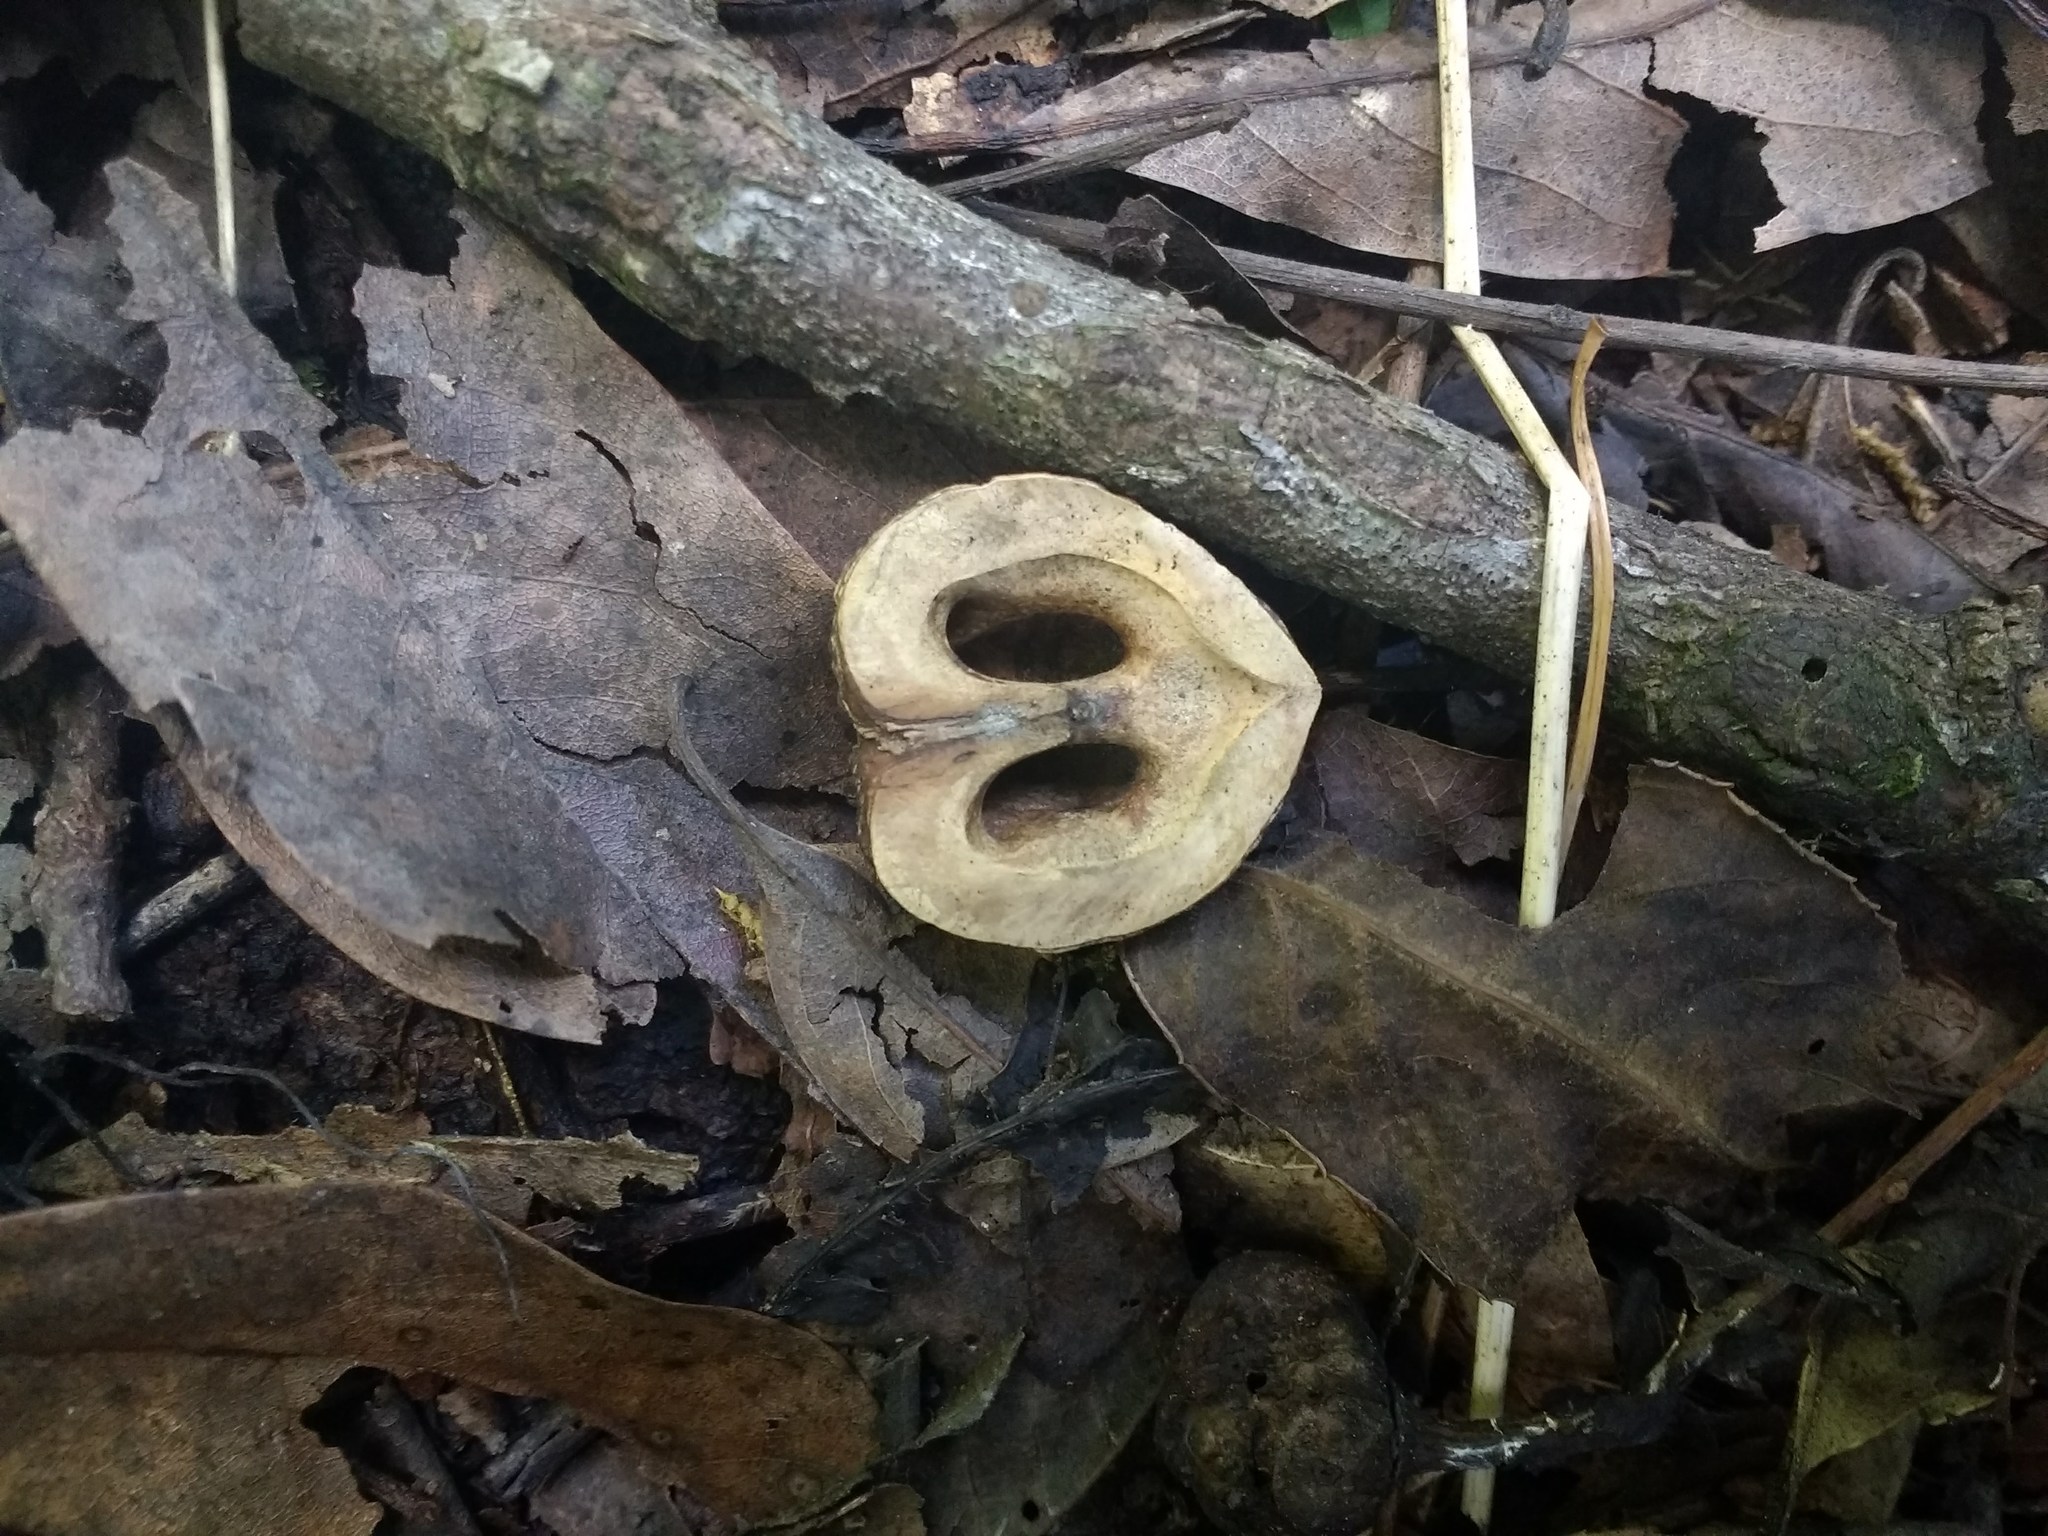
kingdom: Plantae
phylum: Tracheophyta
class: Magnoliopsida
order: Fagales
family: Juglandaceae
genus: Juglans
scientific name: Juglans australis
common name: Argentine walnut
